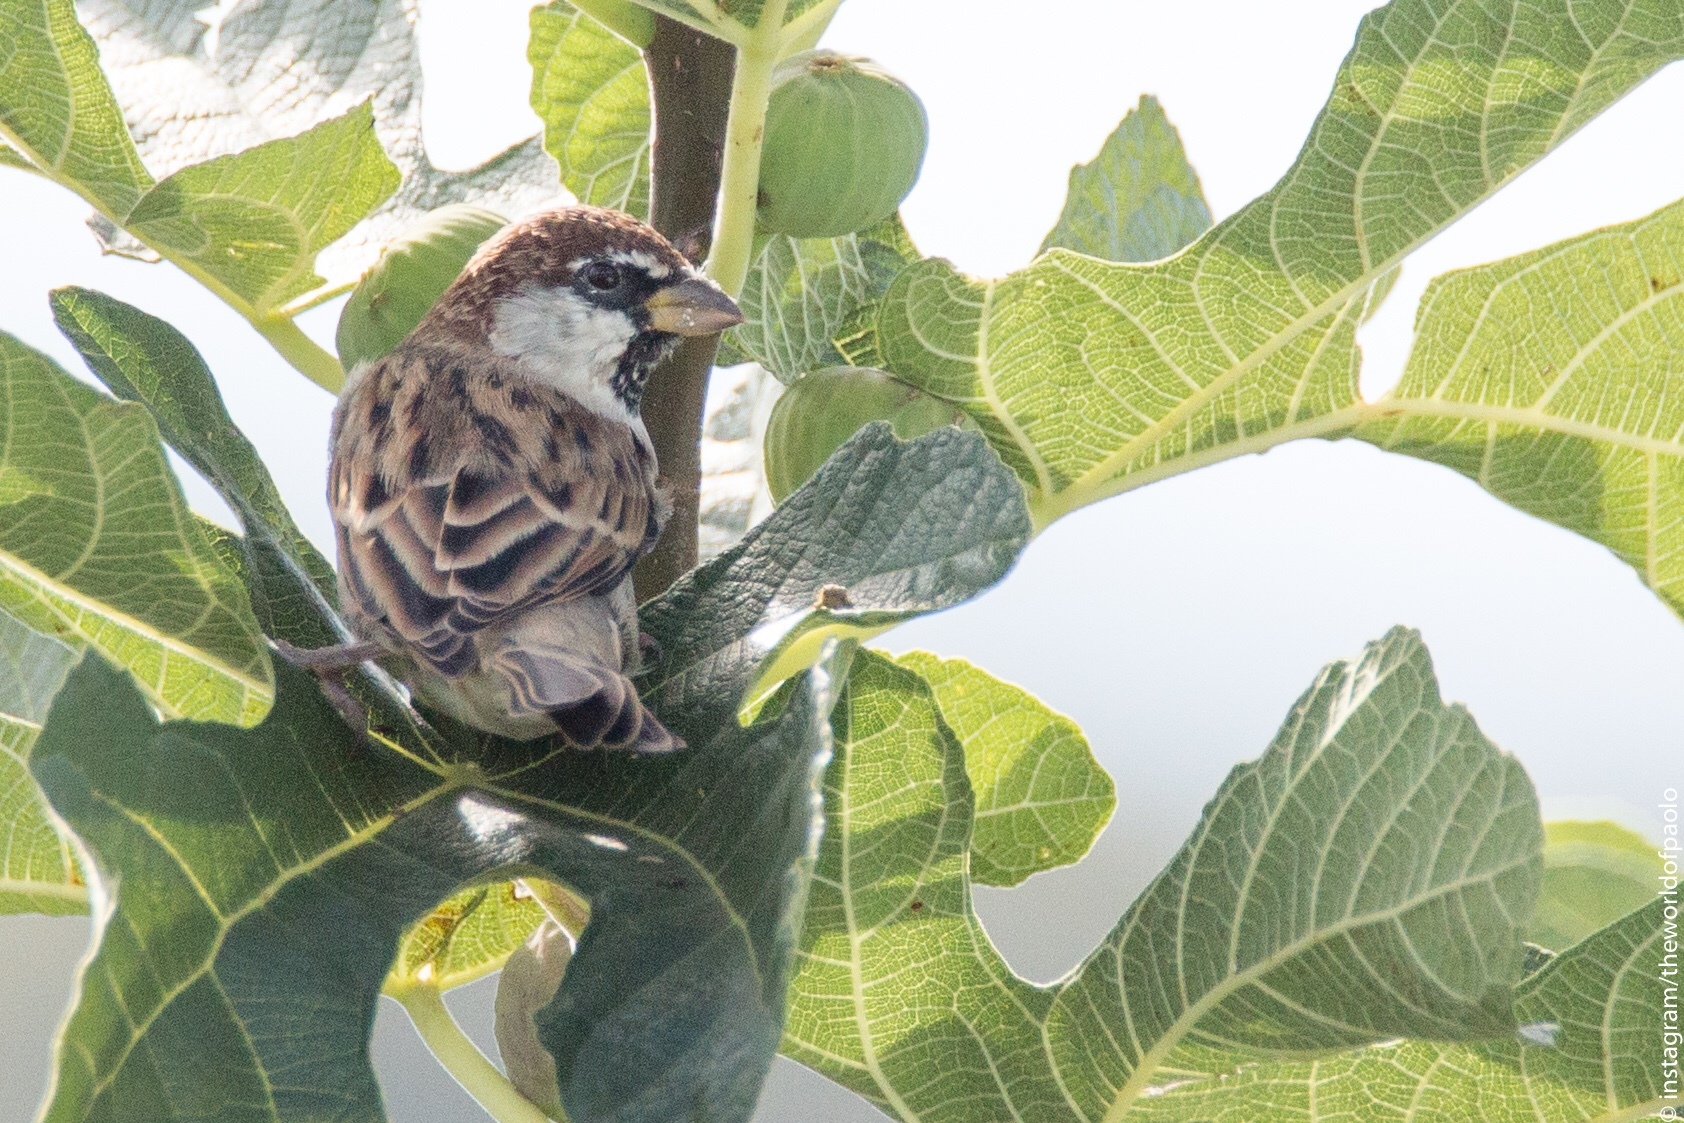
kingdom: Animalia
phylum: Chordata
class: Aves
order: Passeriformes
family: Passeridae
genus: Passer
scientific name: Passer italiae
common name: Italian sparrow
